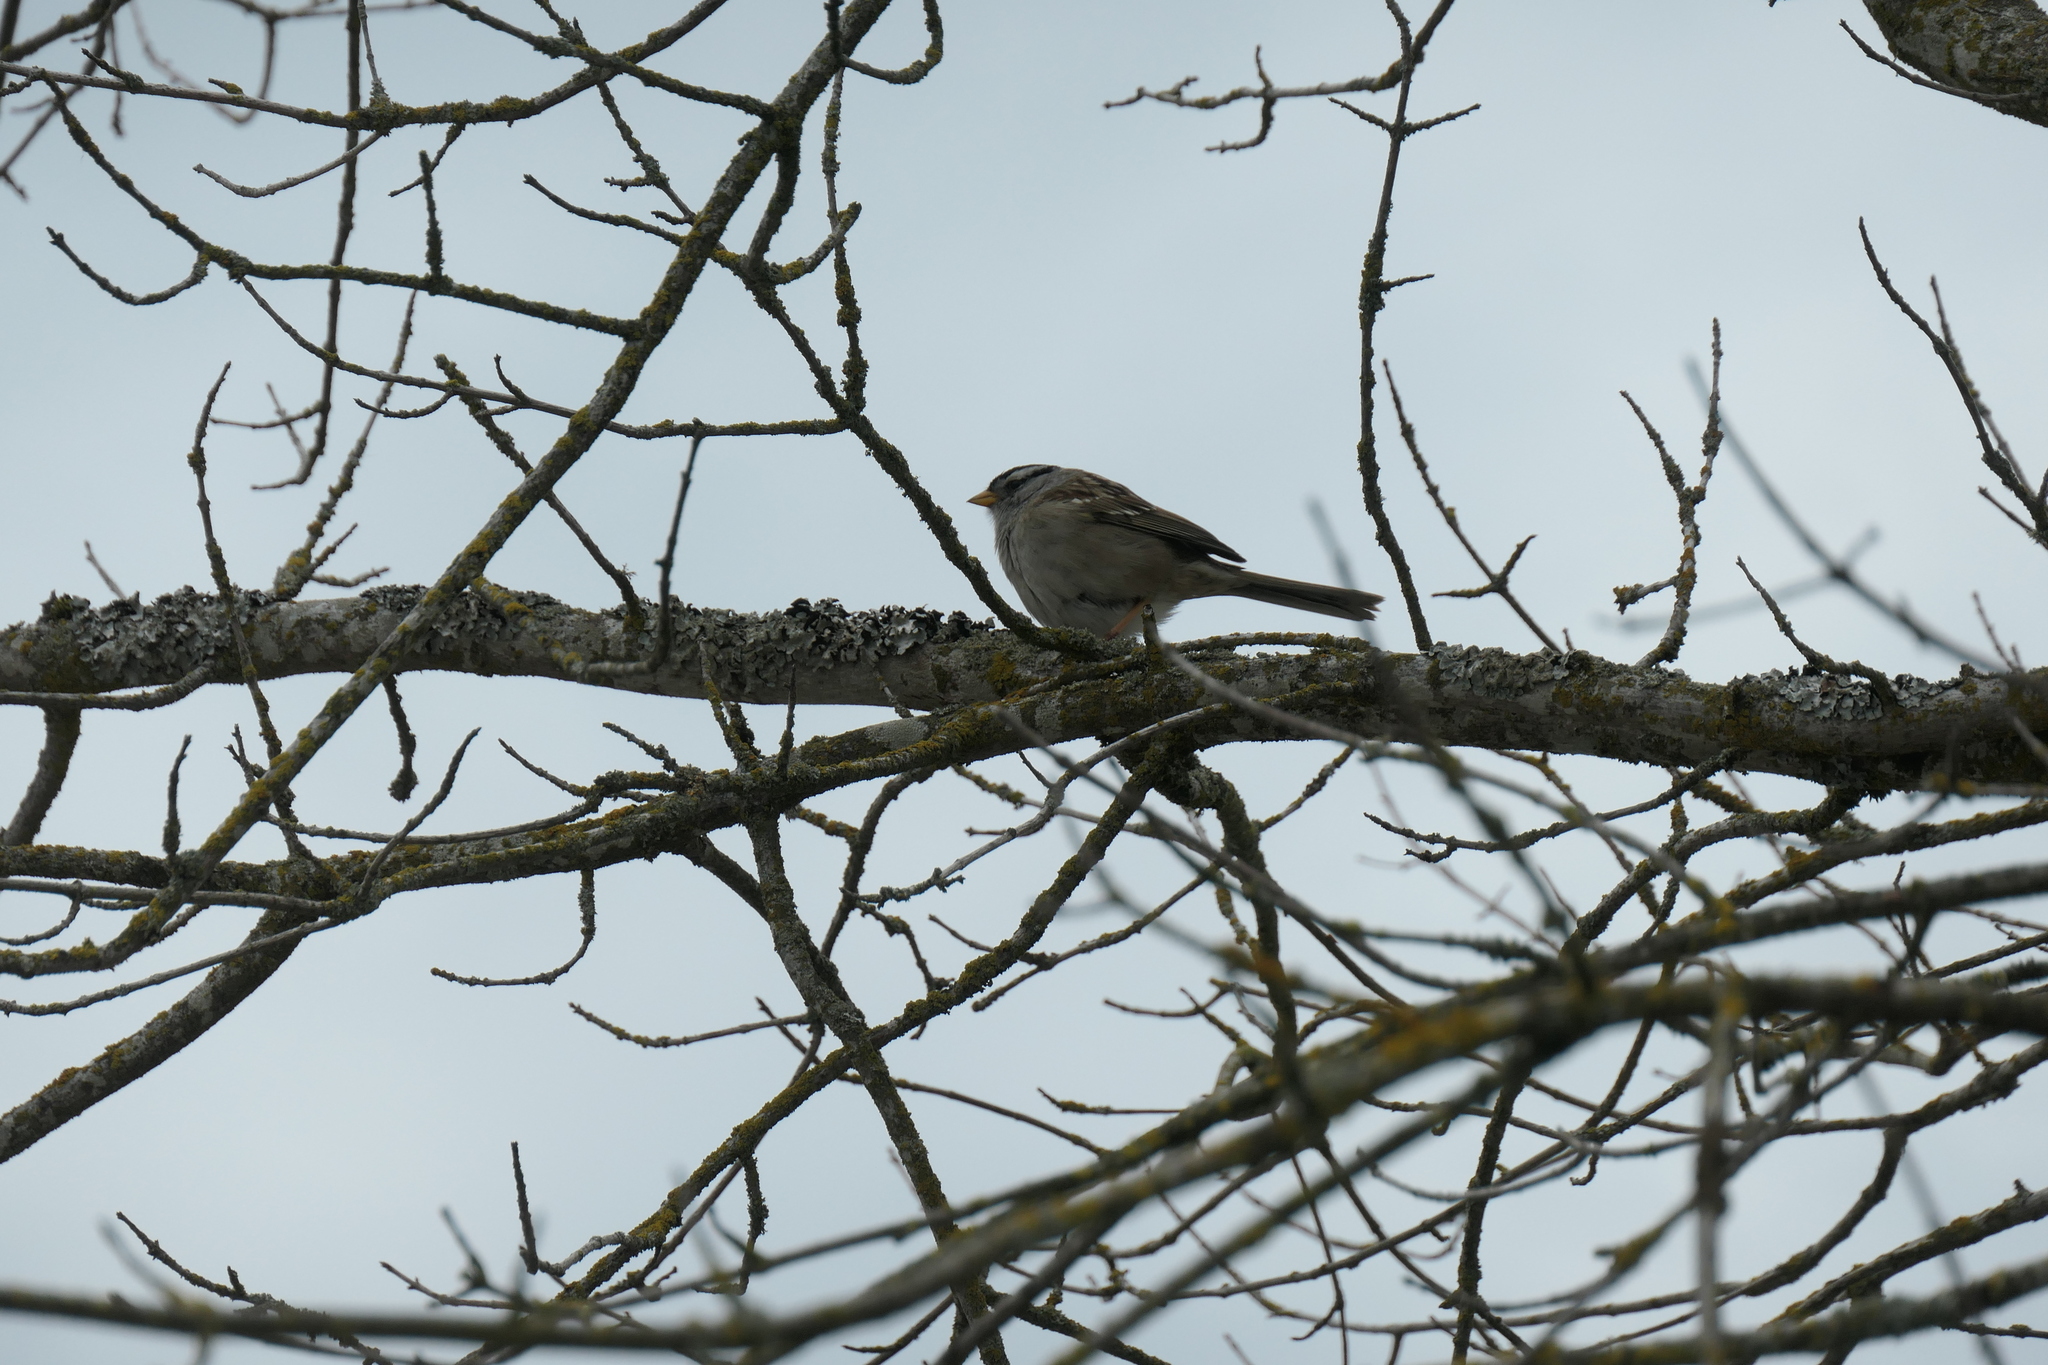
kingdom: Animalia
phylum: Chordata
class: Aves
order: Passeriformes
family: Passerellidae
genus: Zonotrichia
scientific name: Zonotrichia leucophrys
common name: White-crowned sparrow
